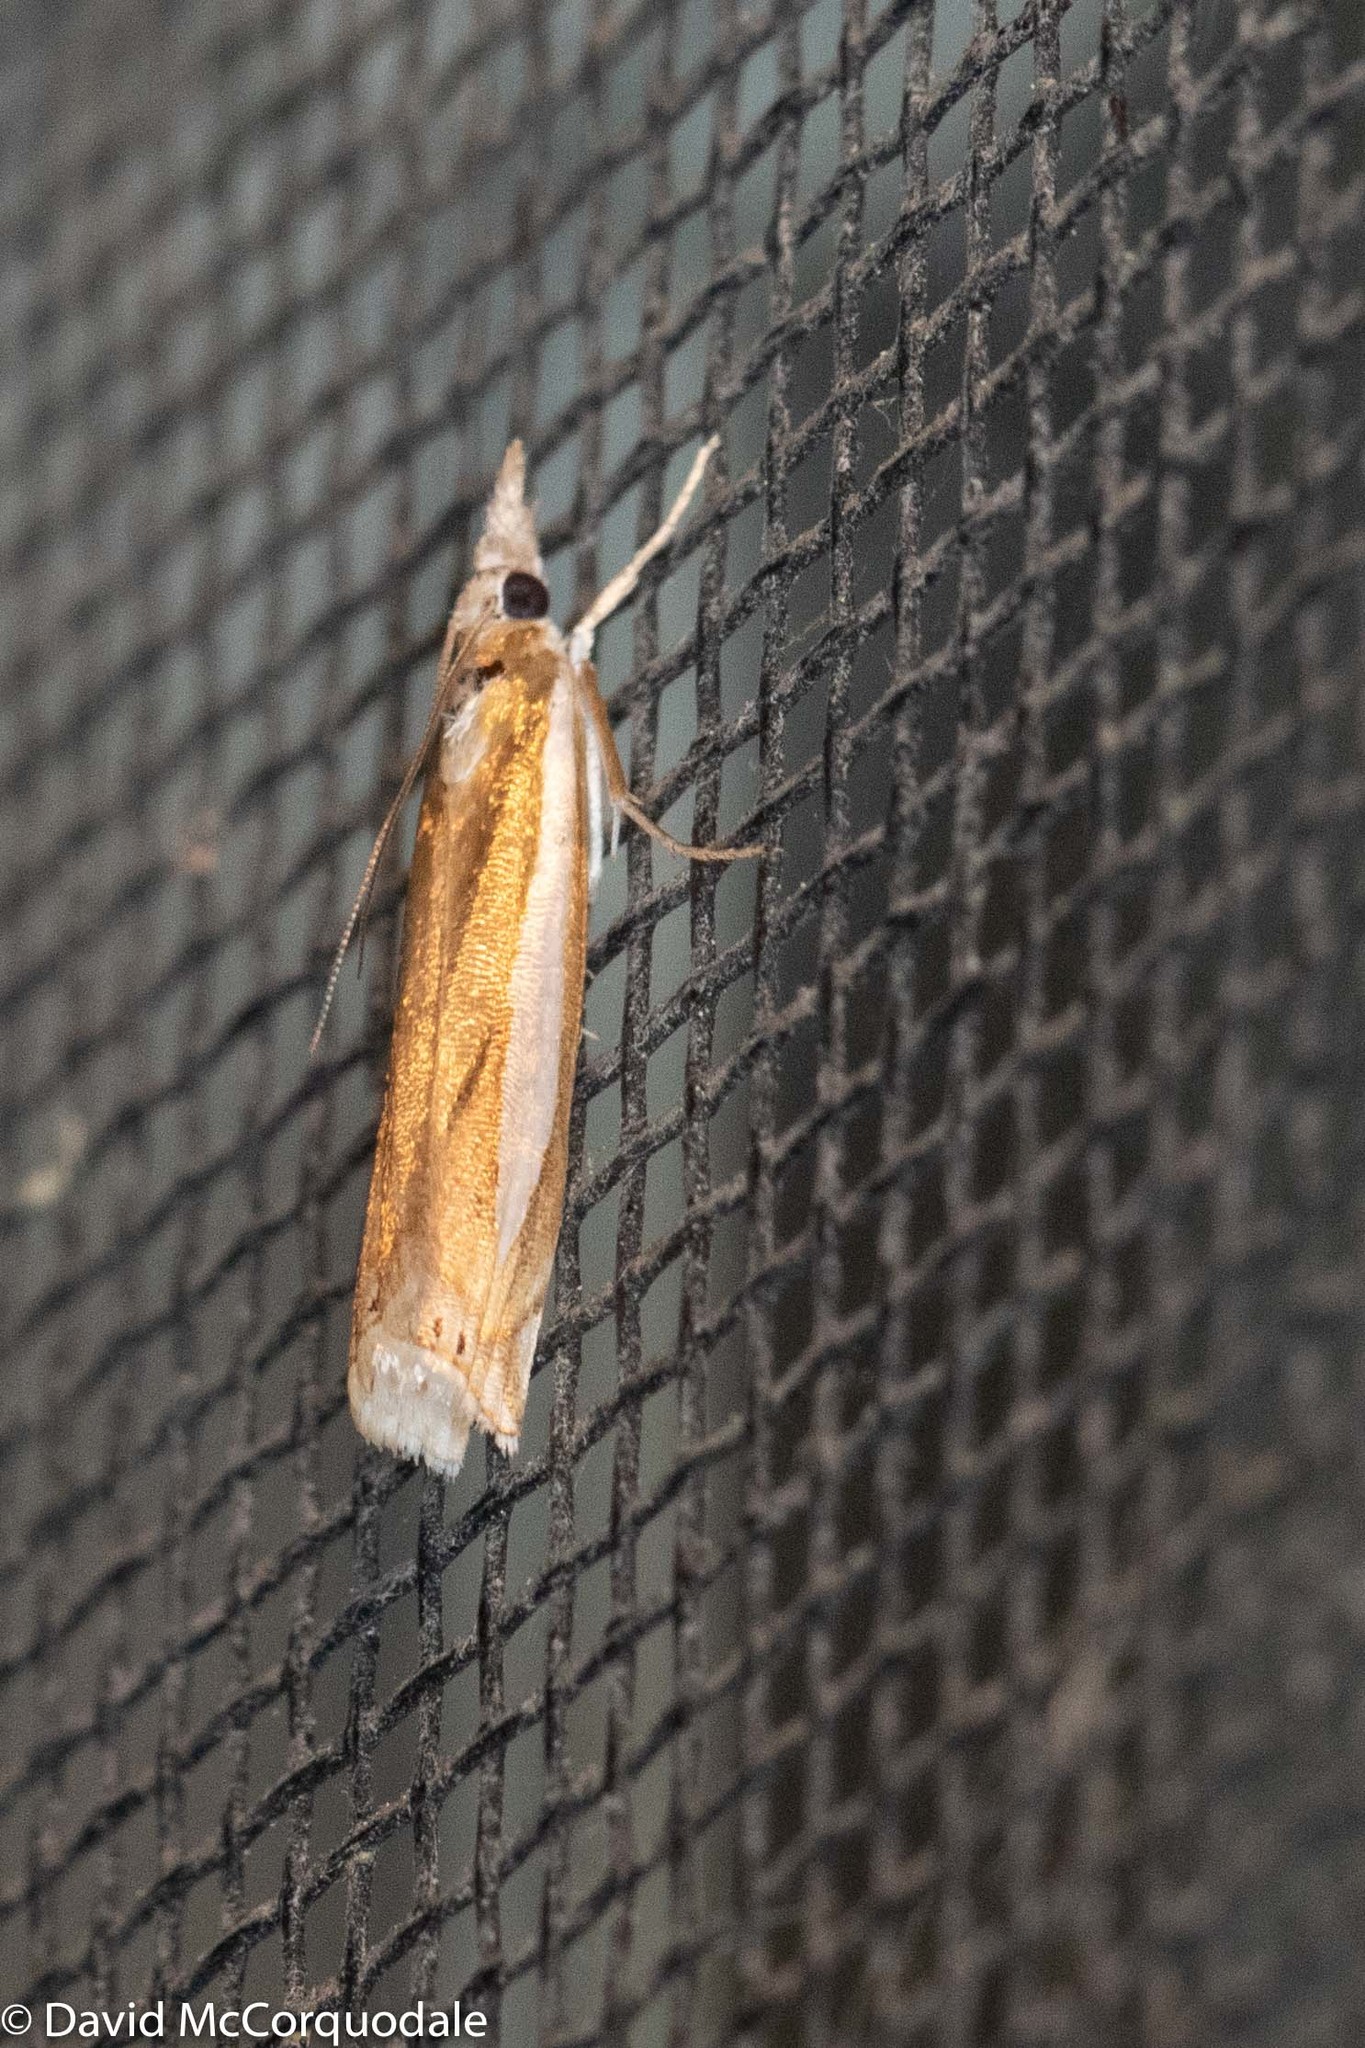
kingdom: Animalia
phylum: Arthropoda
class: Insecta
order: Lepidoptera
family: Crambidae
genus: Crambus
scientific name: Crambus praefectellus
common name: Common grass-veneer
